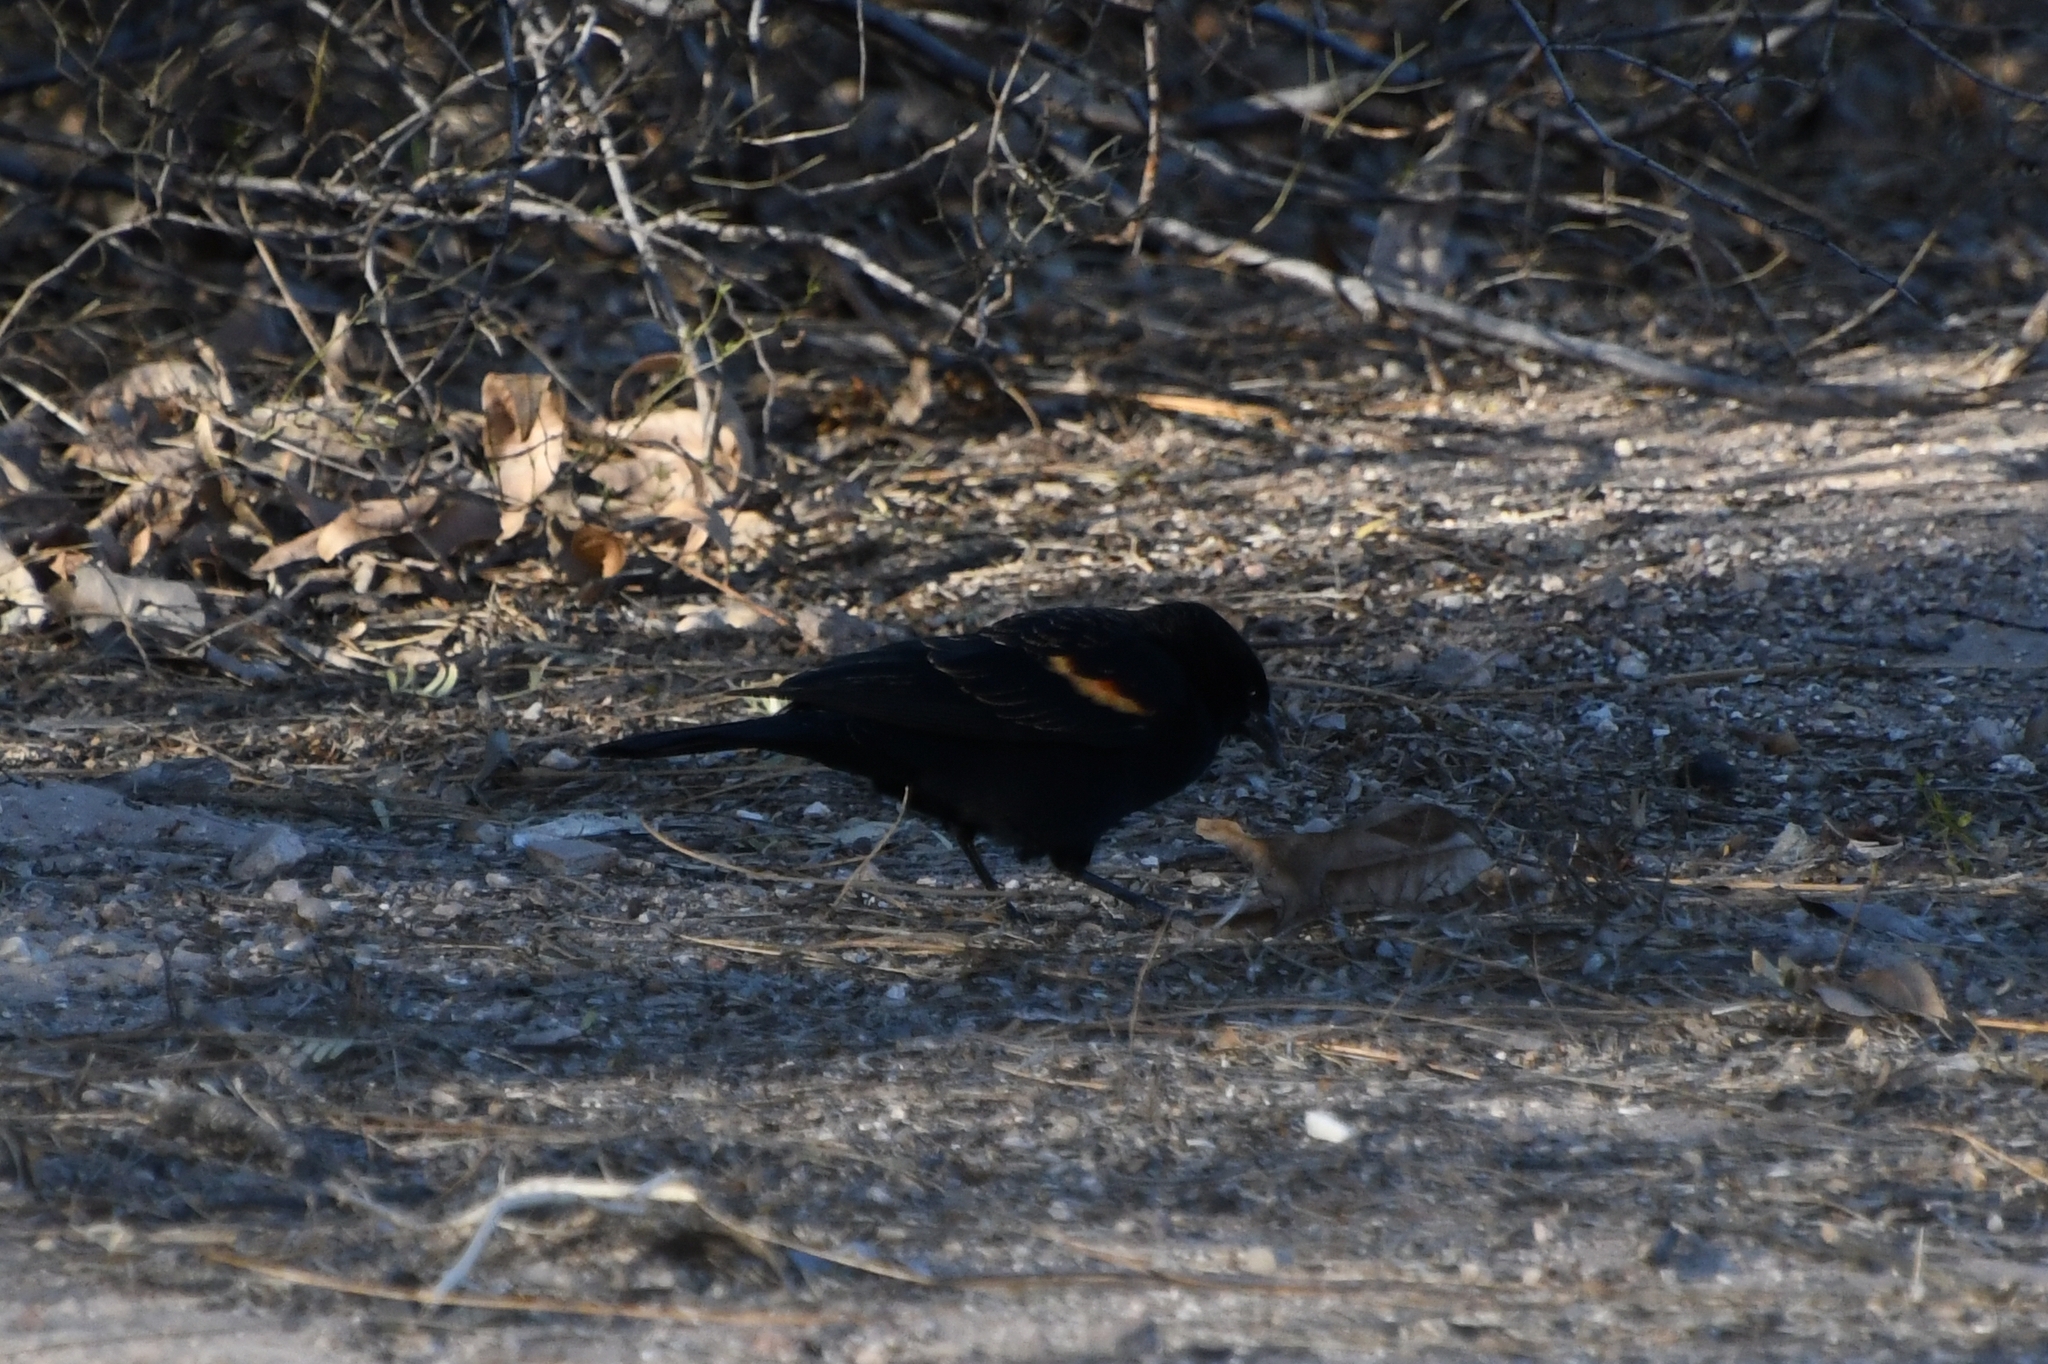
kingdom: Animalia
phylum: Chordata
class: Aves
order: Passeriformes
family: Icteridae
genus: Agelaius
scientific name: Agelaius phoeniceus
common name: Red-winged blackbird
